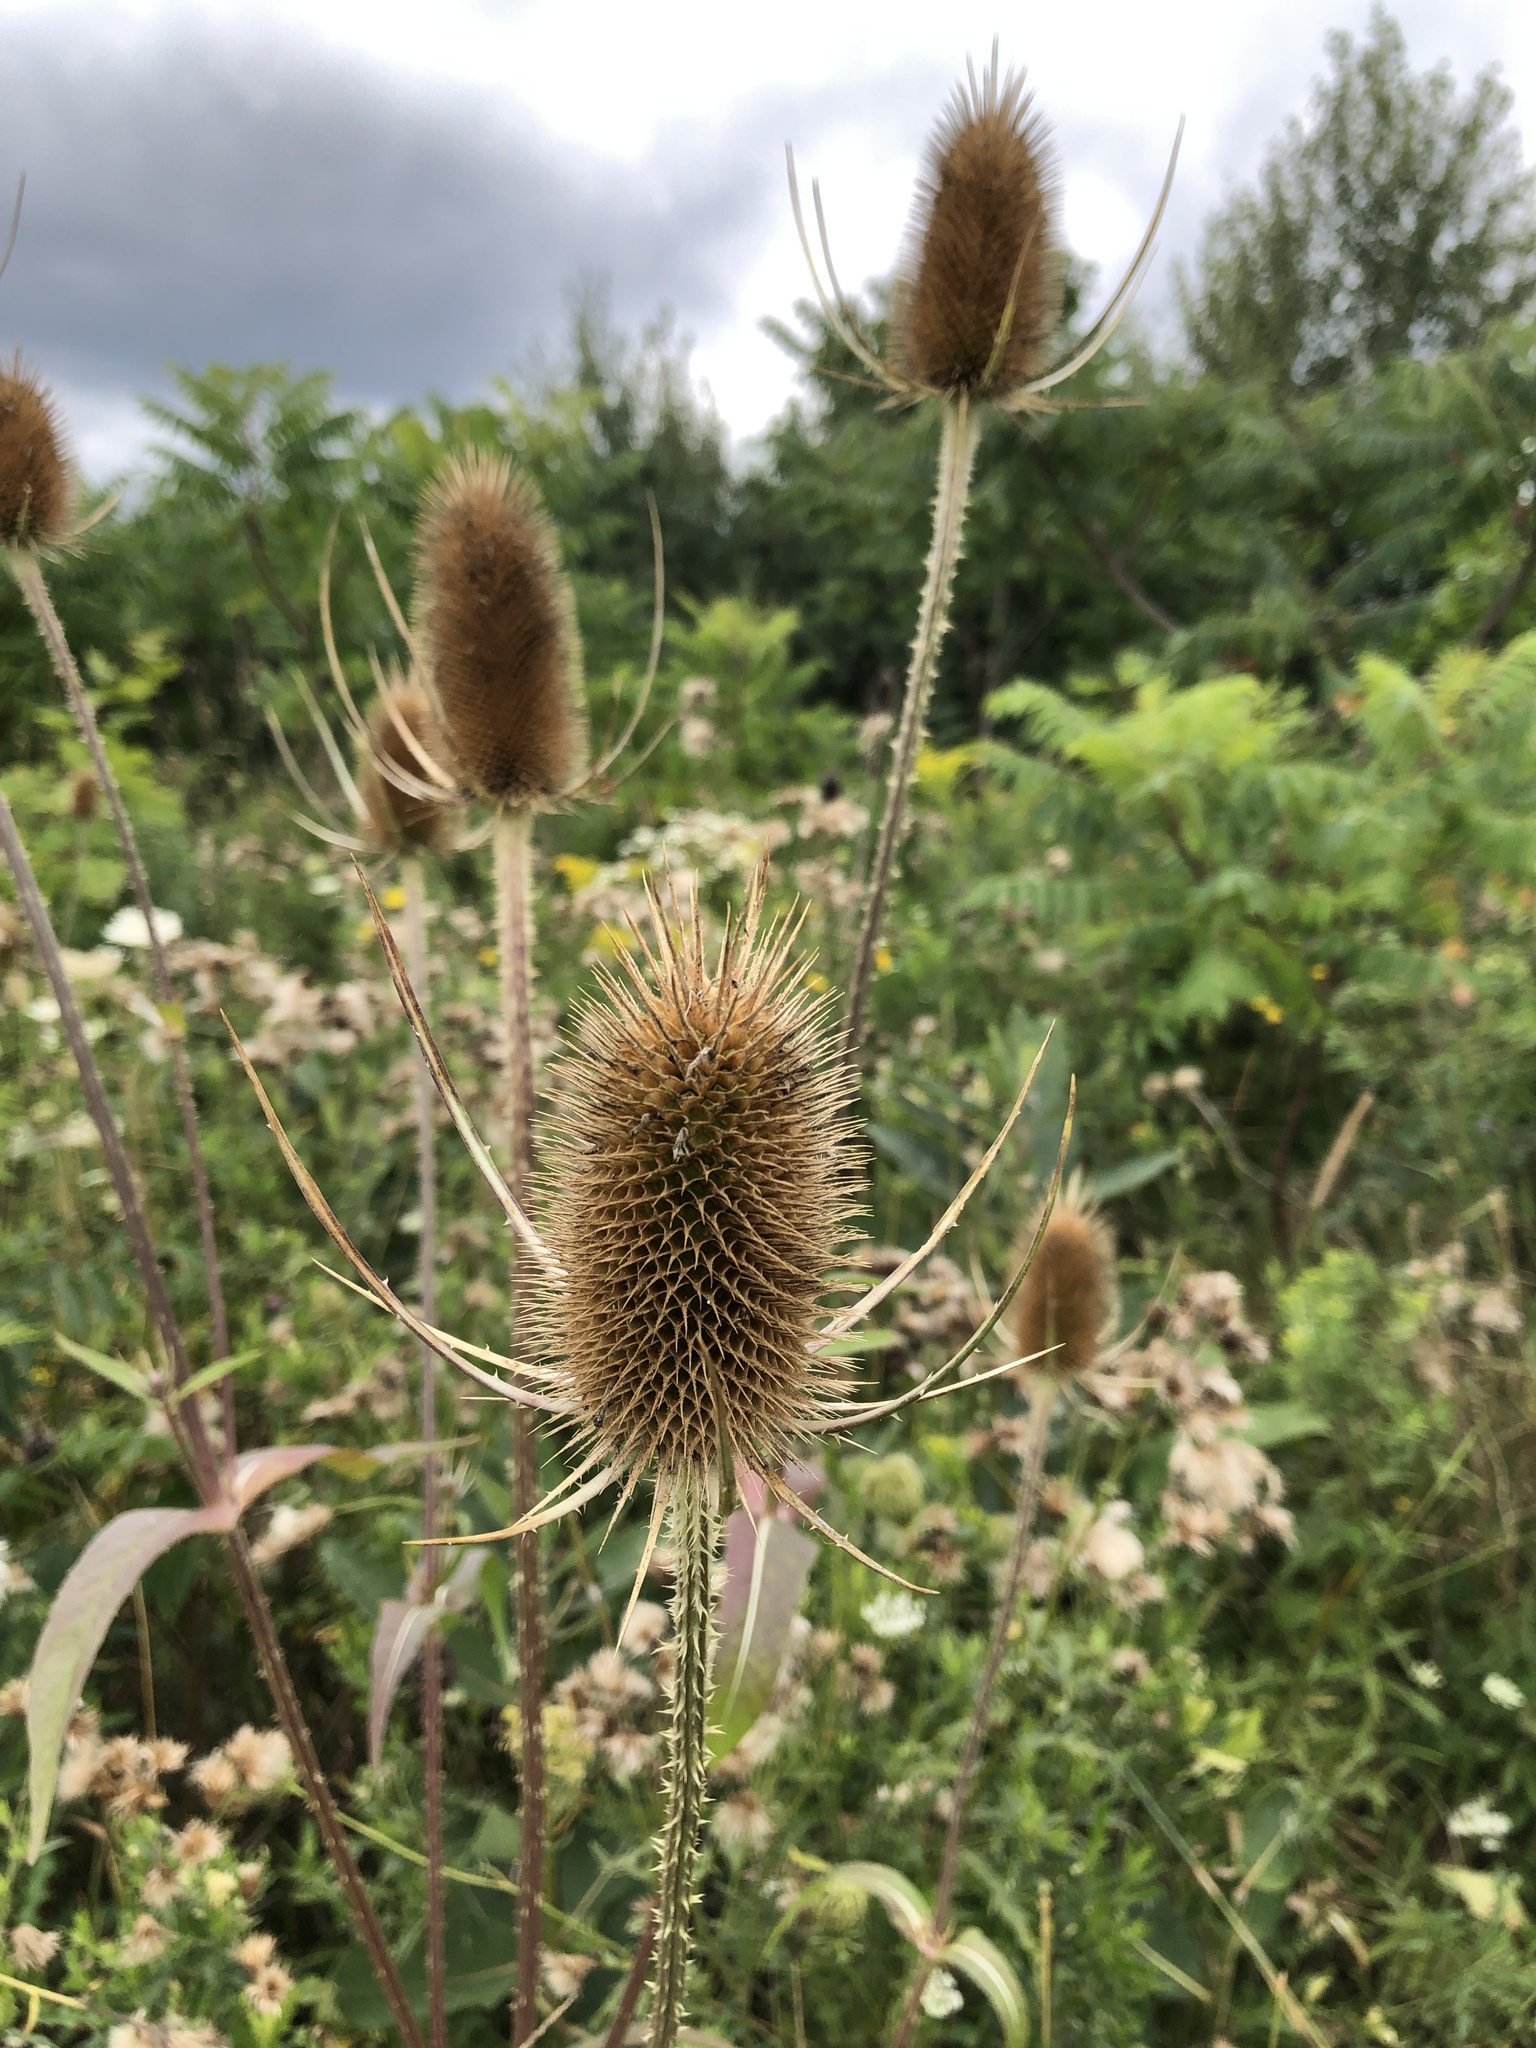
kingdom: Plantae
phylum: Tracheophyta
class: Magnoliopsida
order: Dipsacales
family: Caprifoliaceae
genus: Dipsacus
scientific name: Dipsacus fullonum
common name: Teasel
